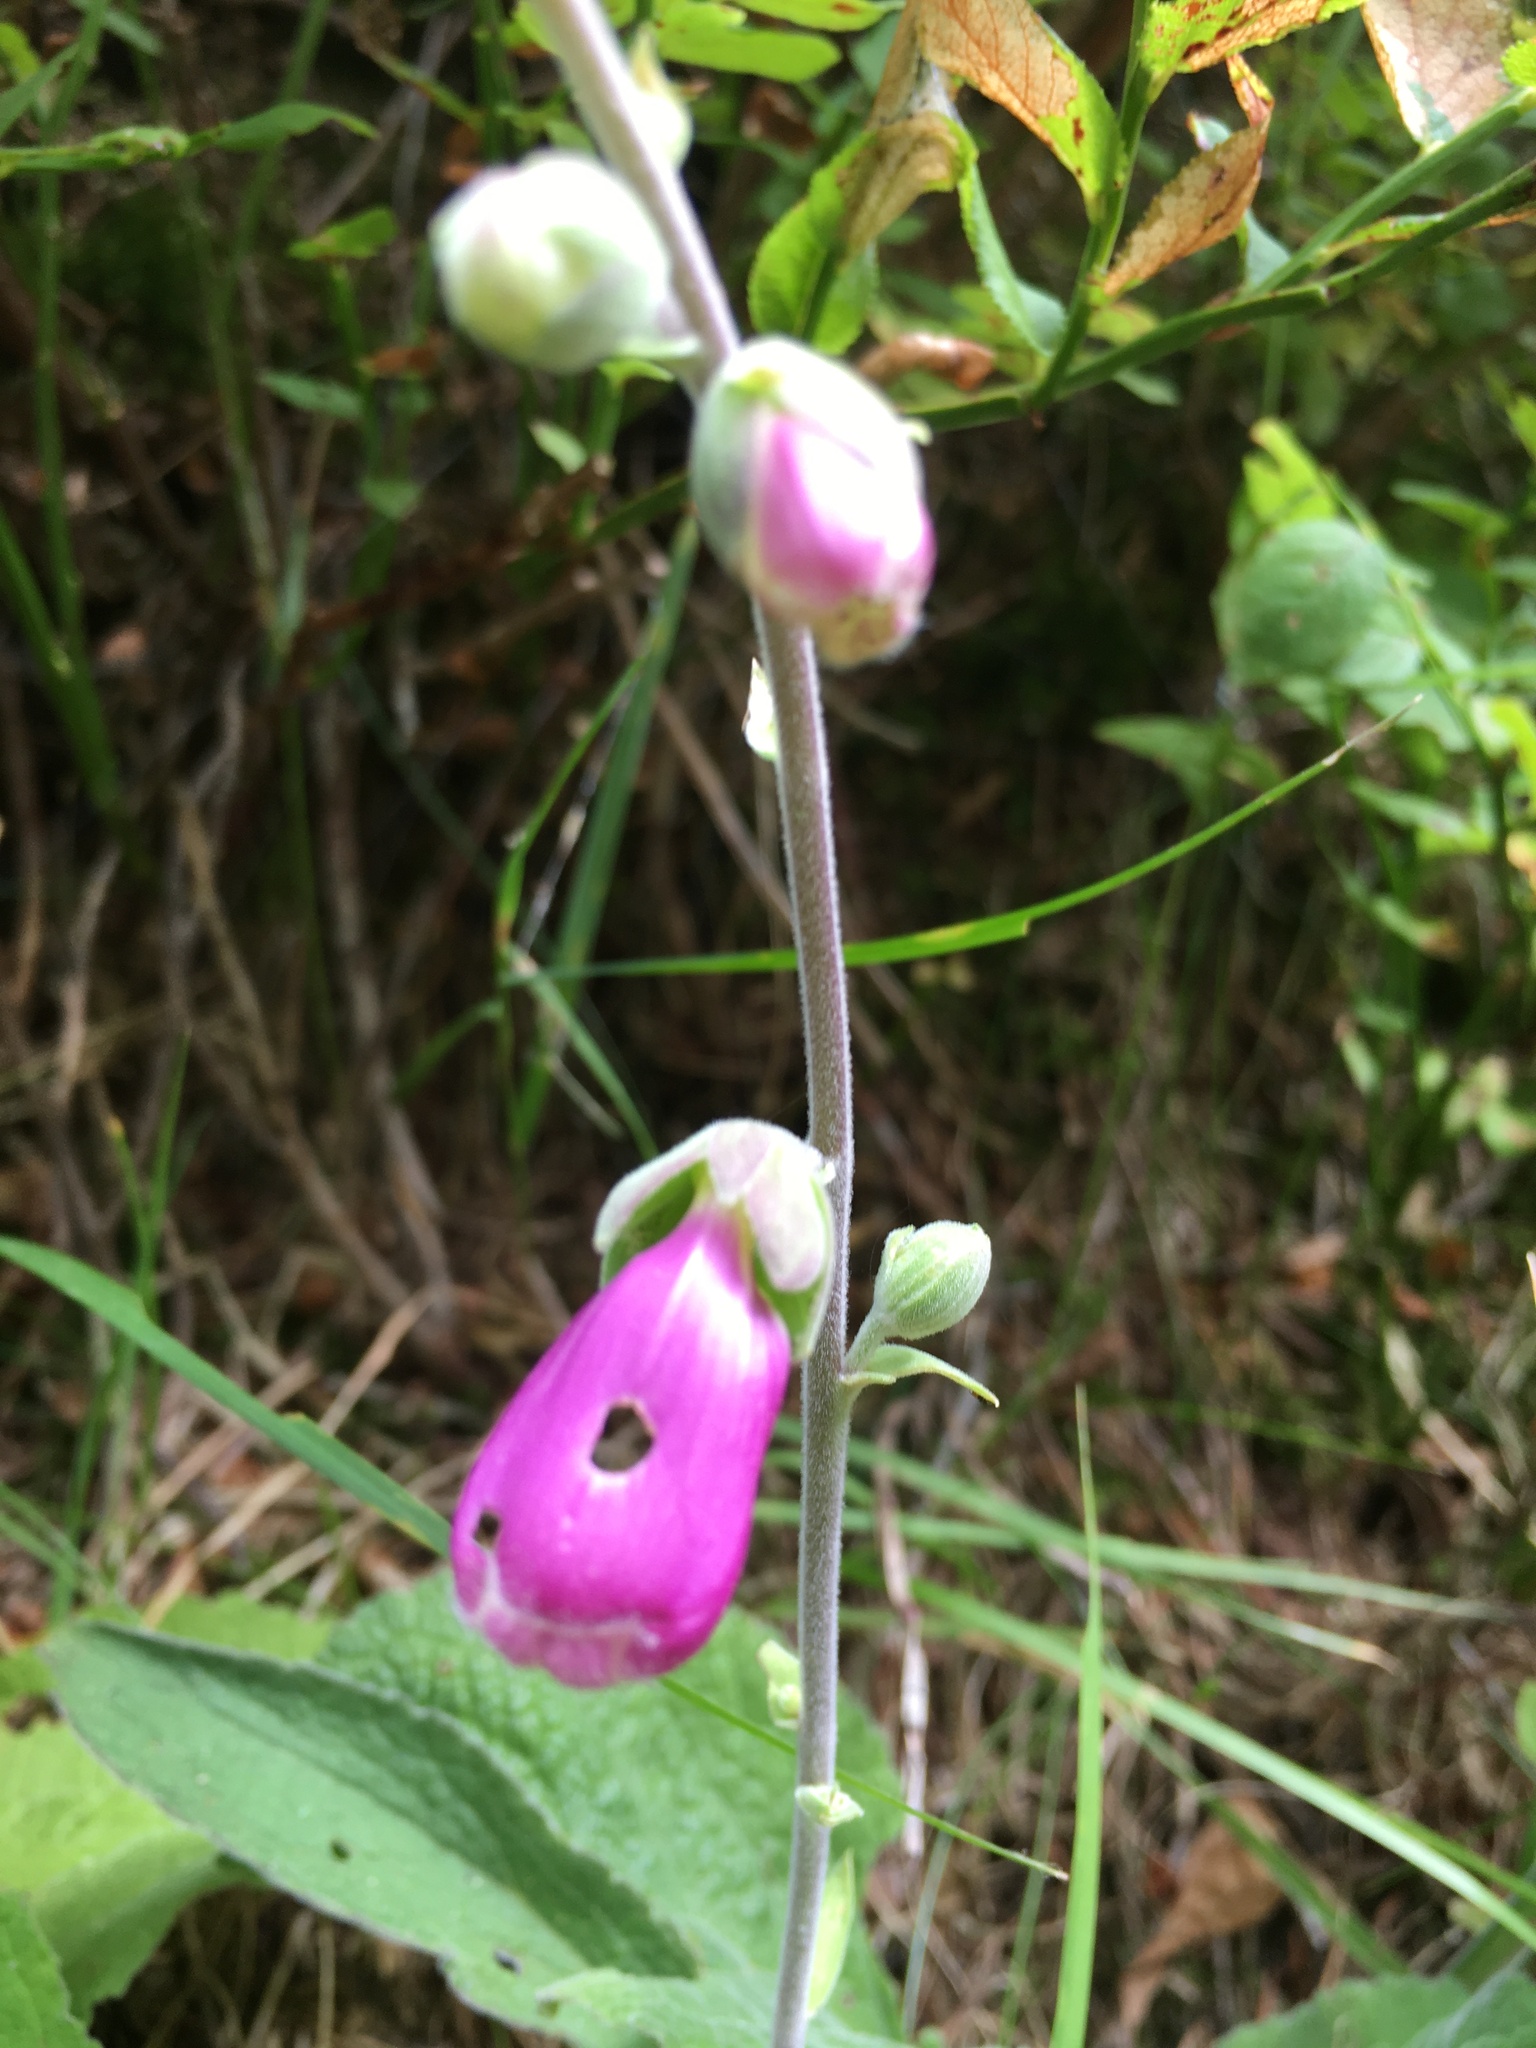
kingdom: Plantae
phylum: Tracheophyta
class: Magnoliopsida
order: Lamiales
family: Plantaginaceae
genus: Digitalis
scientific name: Digitalis purpurea
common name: Foxglove
